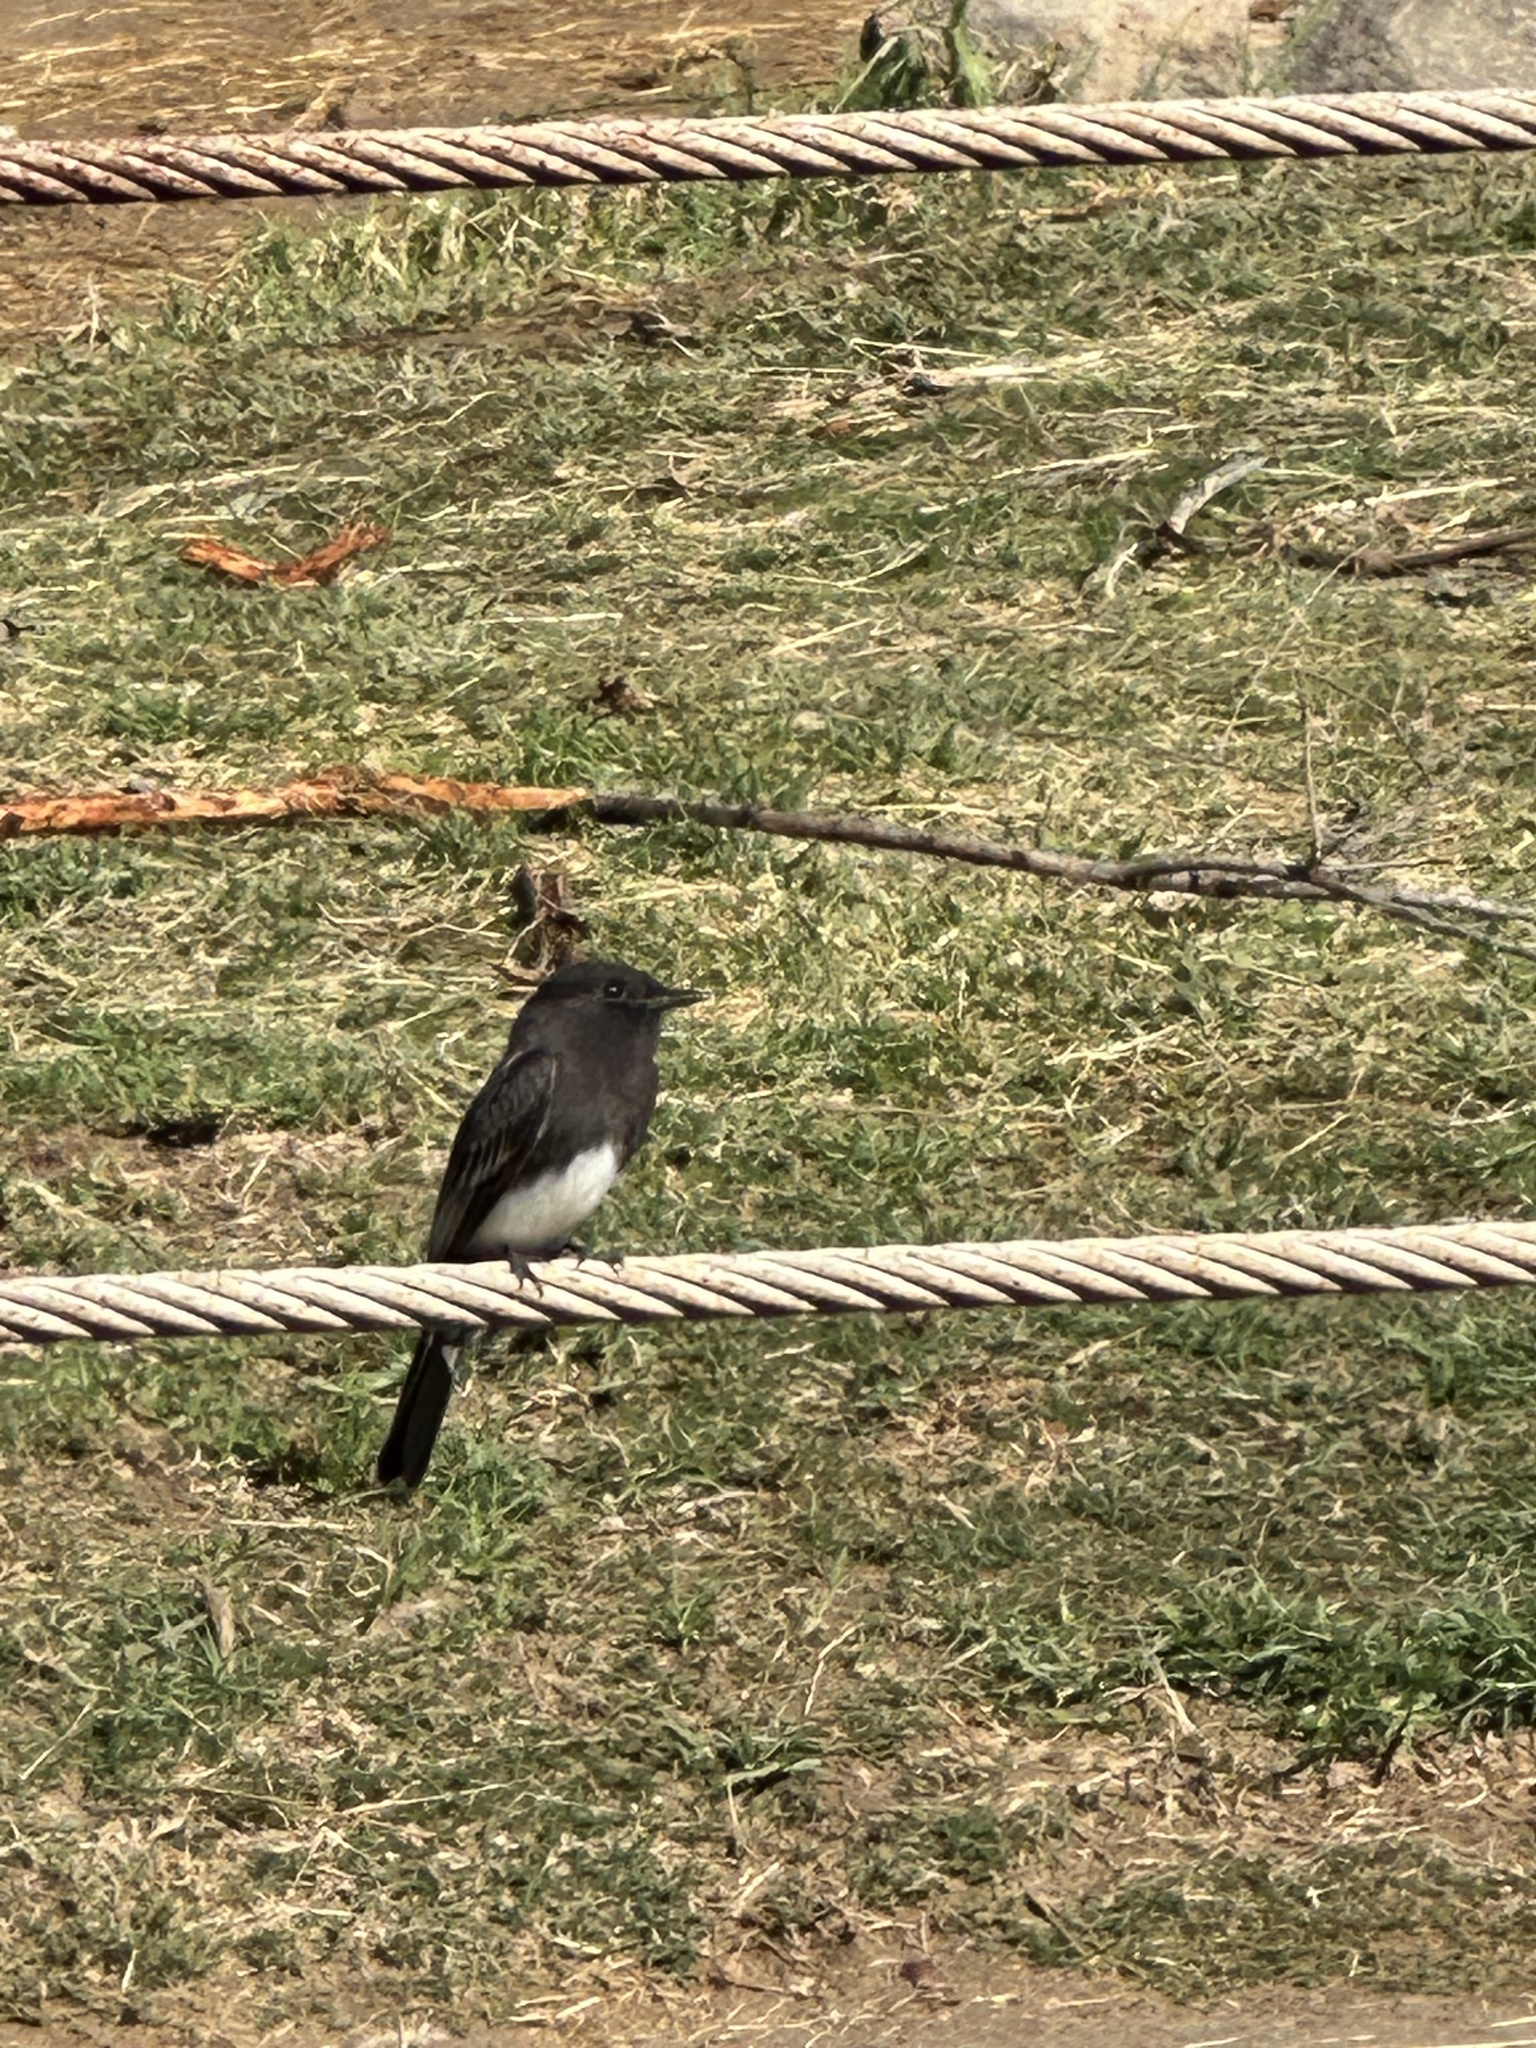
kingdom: Animalia
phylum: Chordata
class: Aves
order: Passeriformes
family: Tyrannidae
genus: Sayornis
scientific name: Sayornis nigricans
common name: Black phoebe
